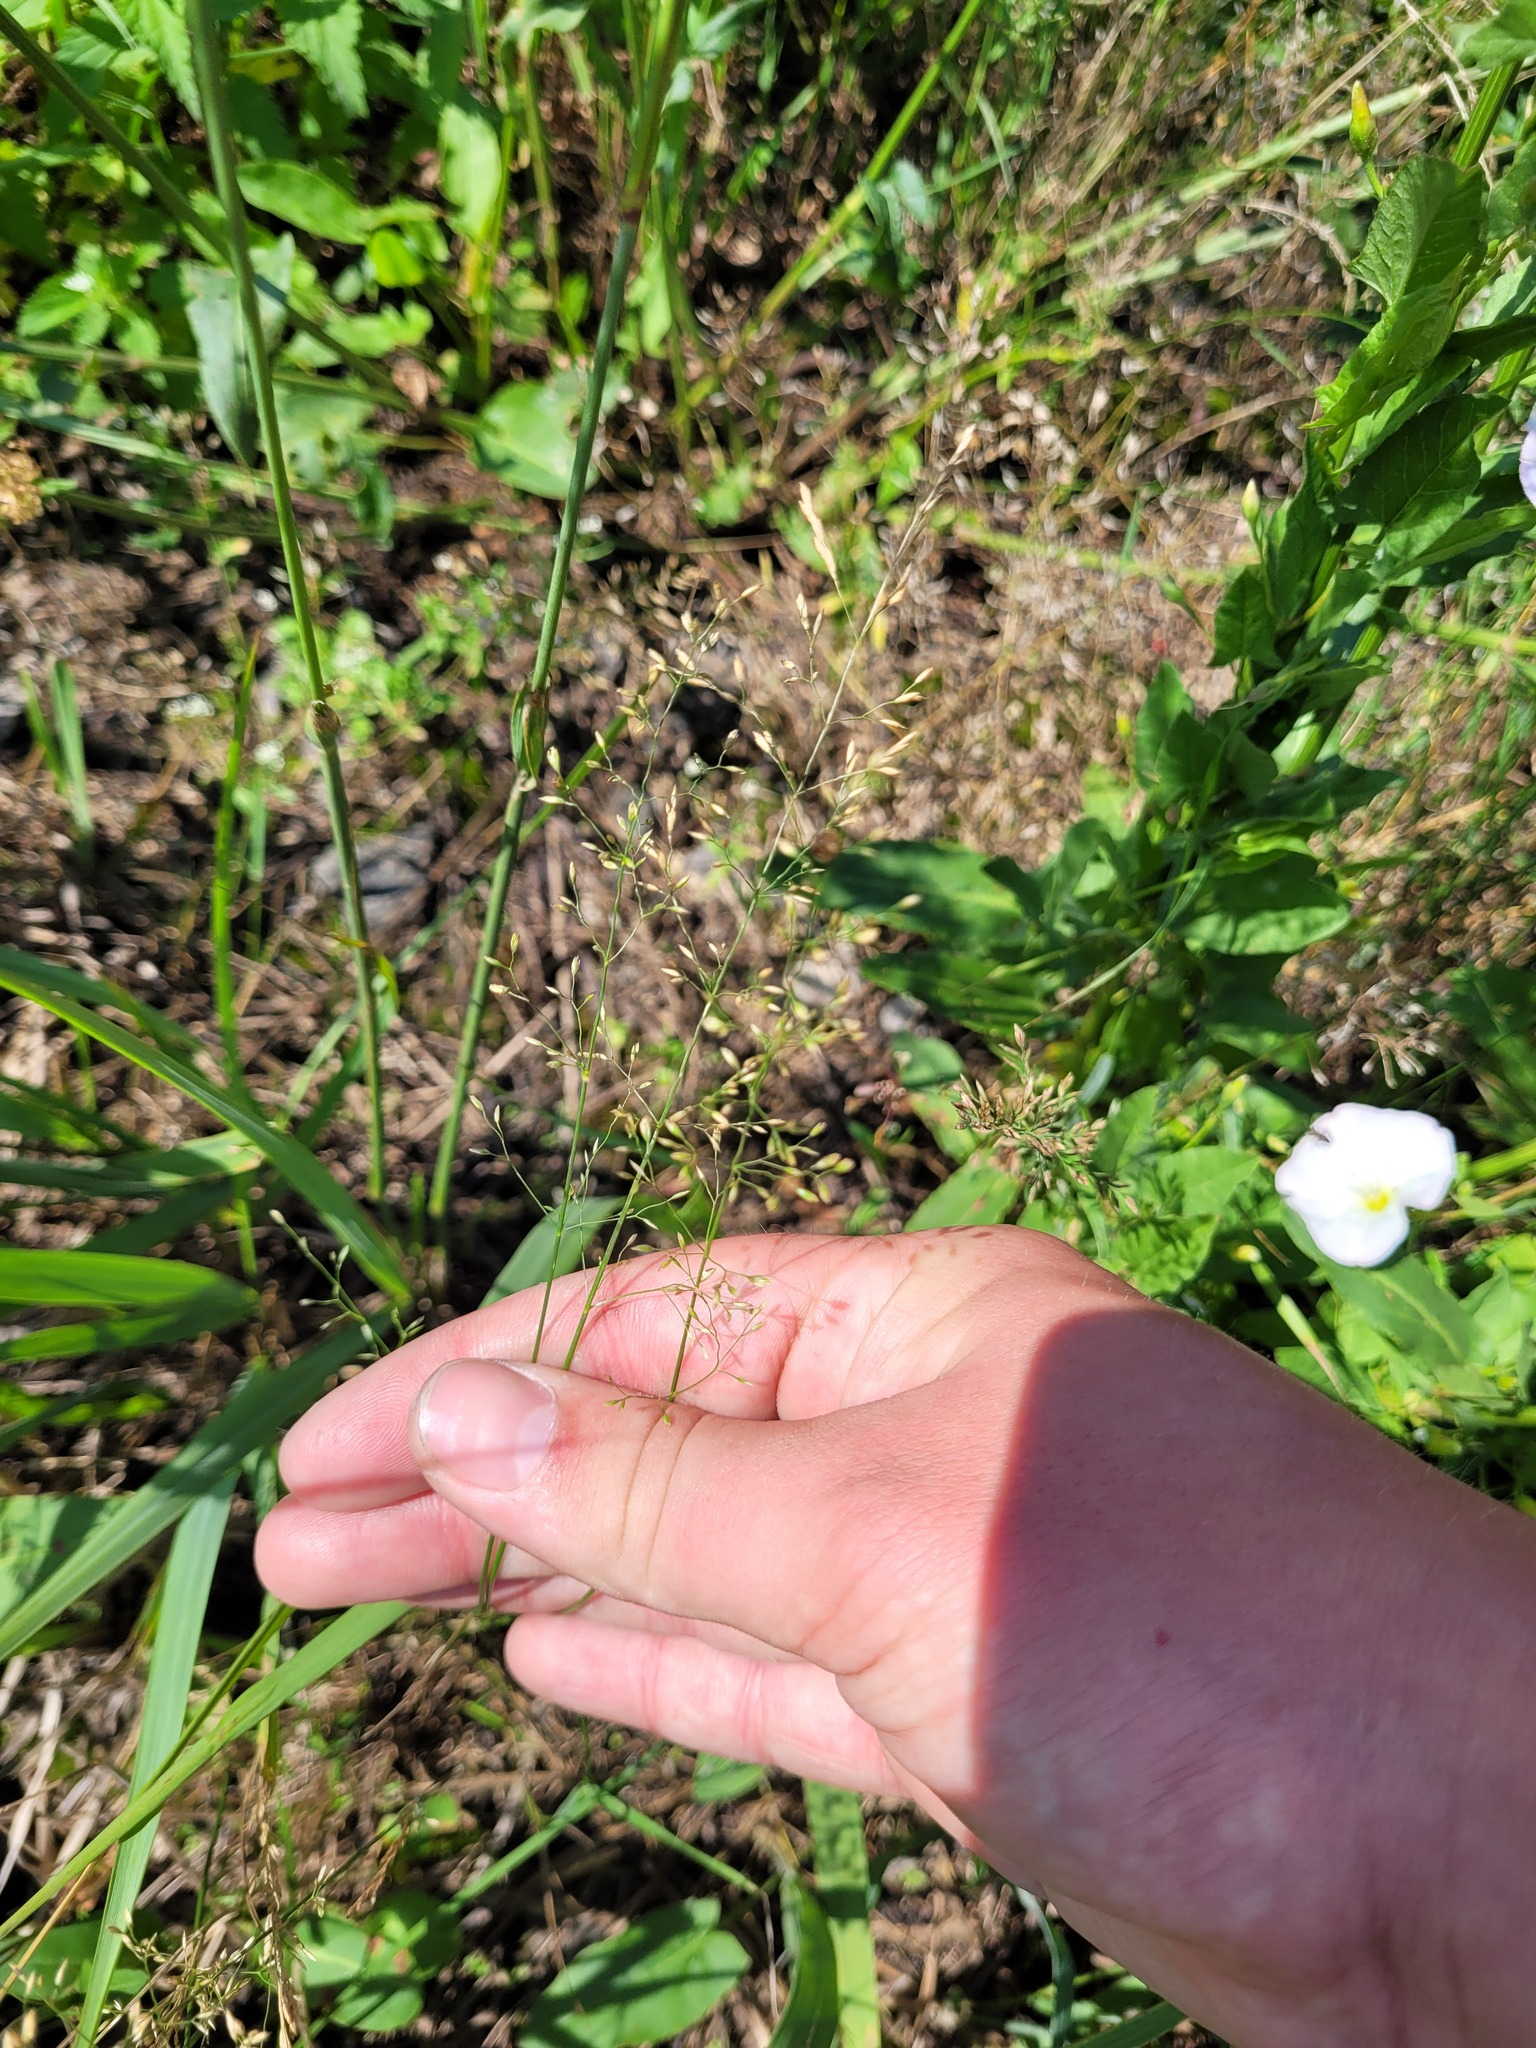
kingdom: Plantae
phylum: Tracheophyta
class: Liliopsida
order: Poales
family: Poaceae
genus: Poa
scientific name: Poa palustris
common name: Swamp meadow-grass
